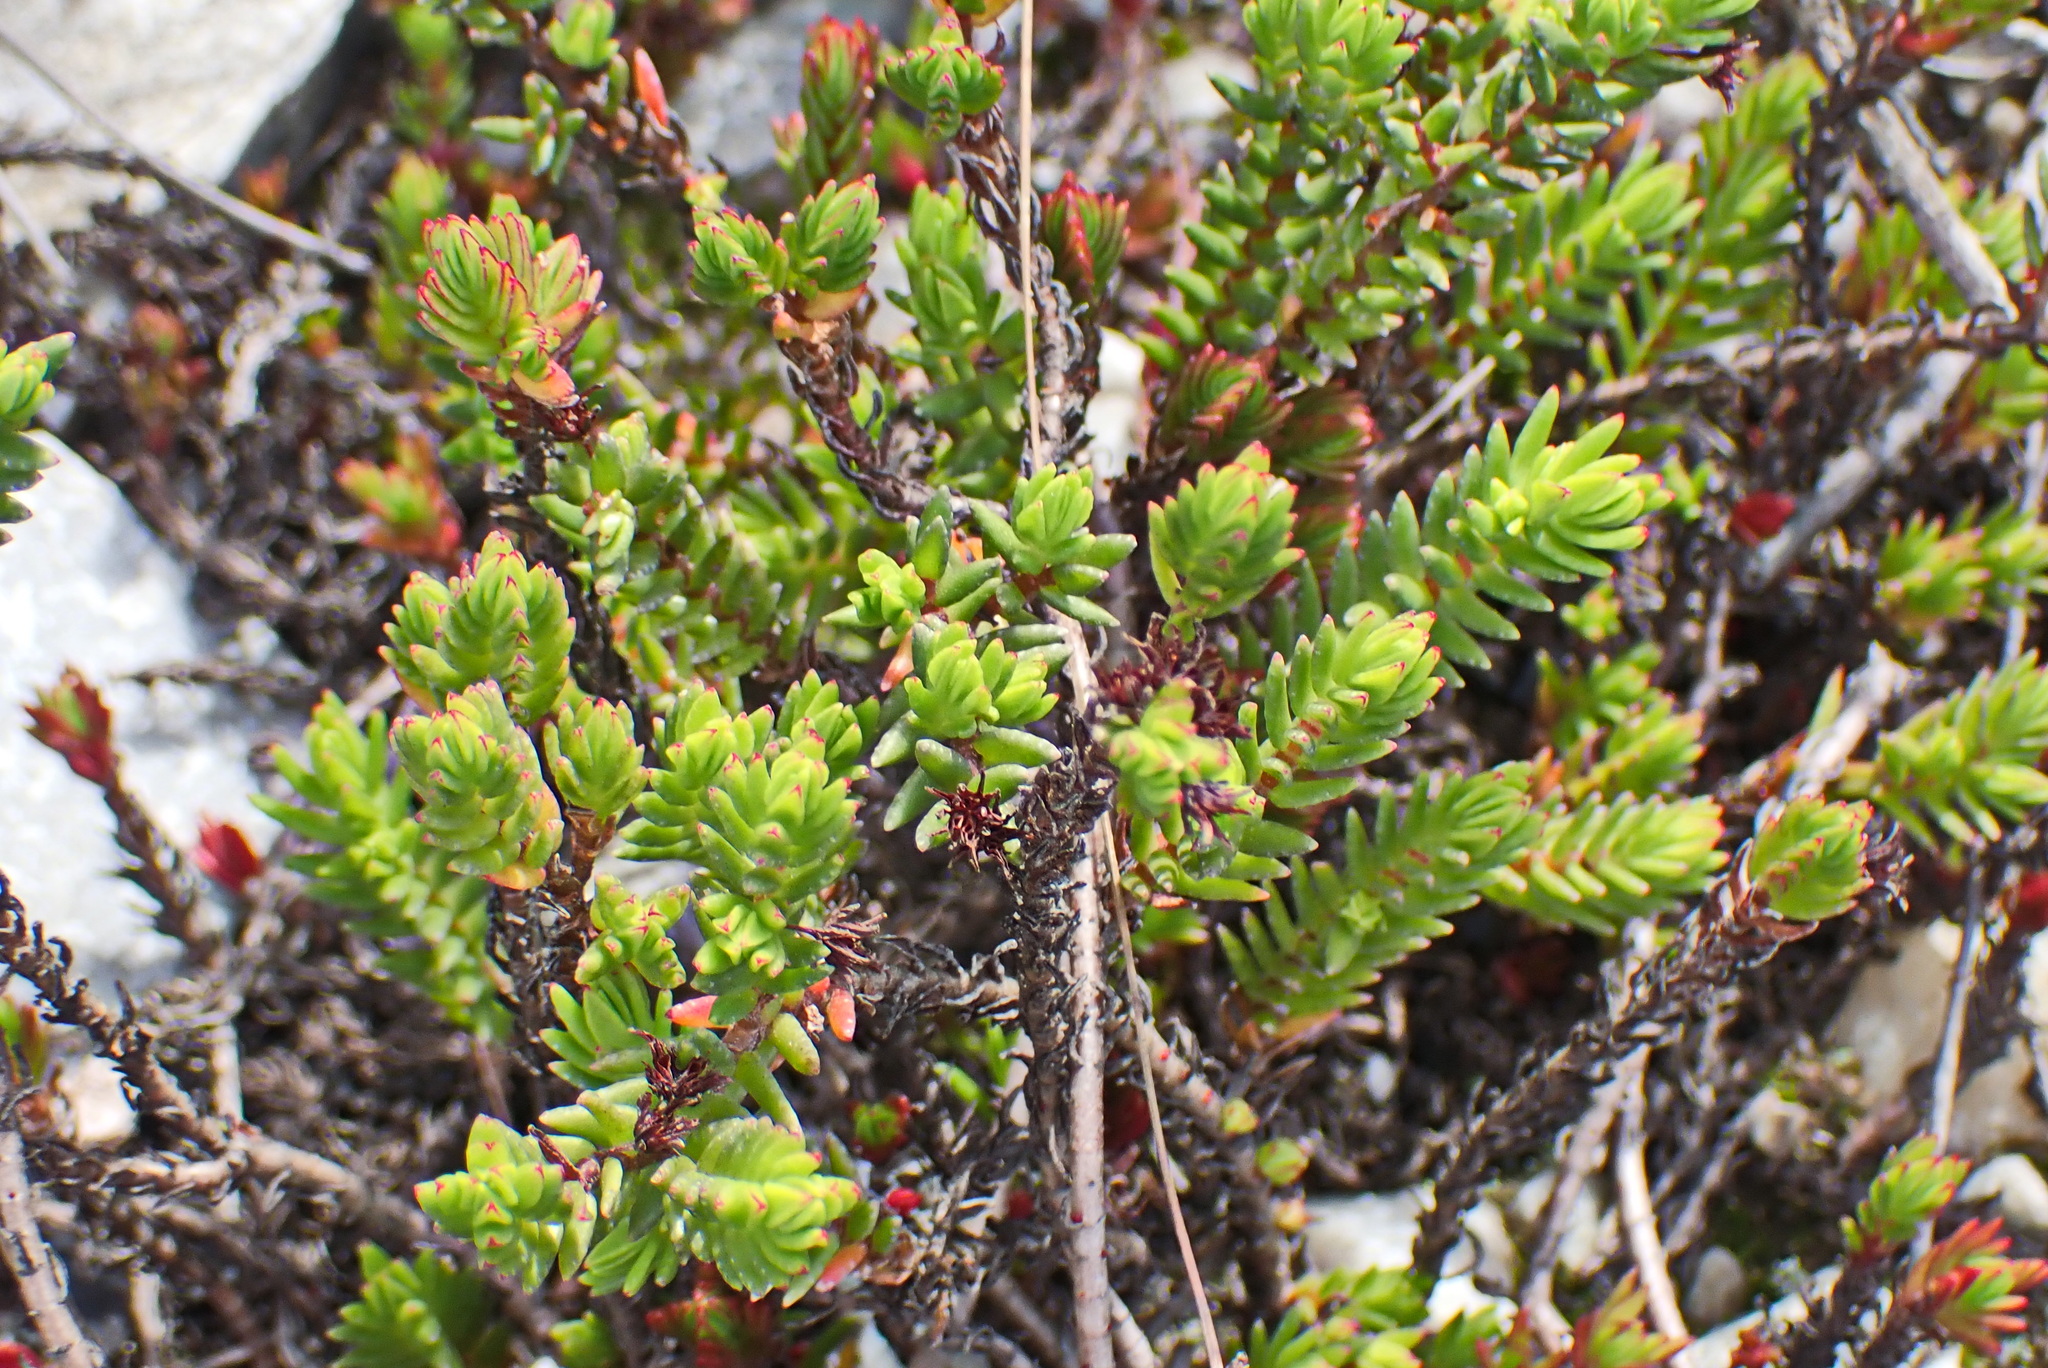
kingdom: Plantae
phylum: Tracheophyta
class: Magnoliopsida
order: Saxifragales
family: Crassulaceae
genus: Crassula
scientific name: Crassula ericoides
